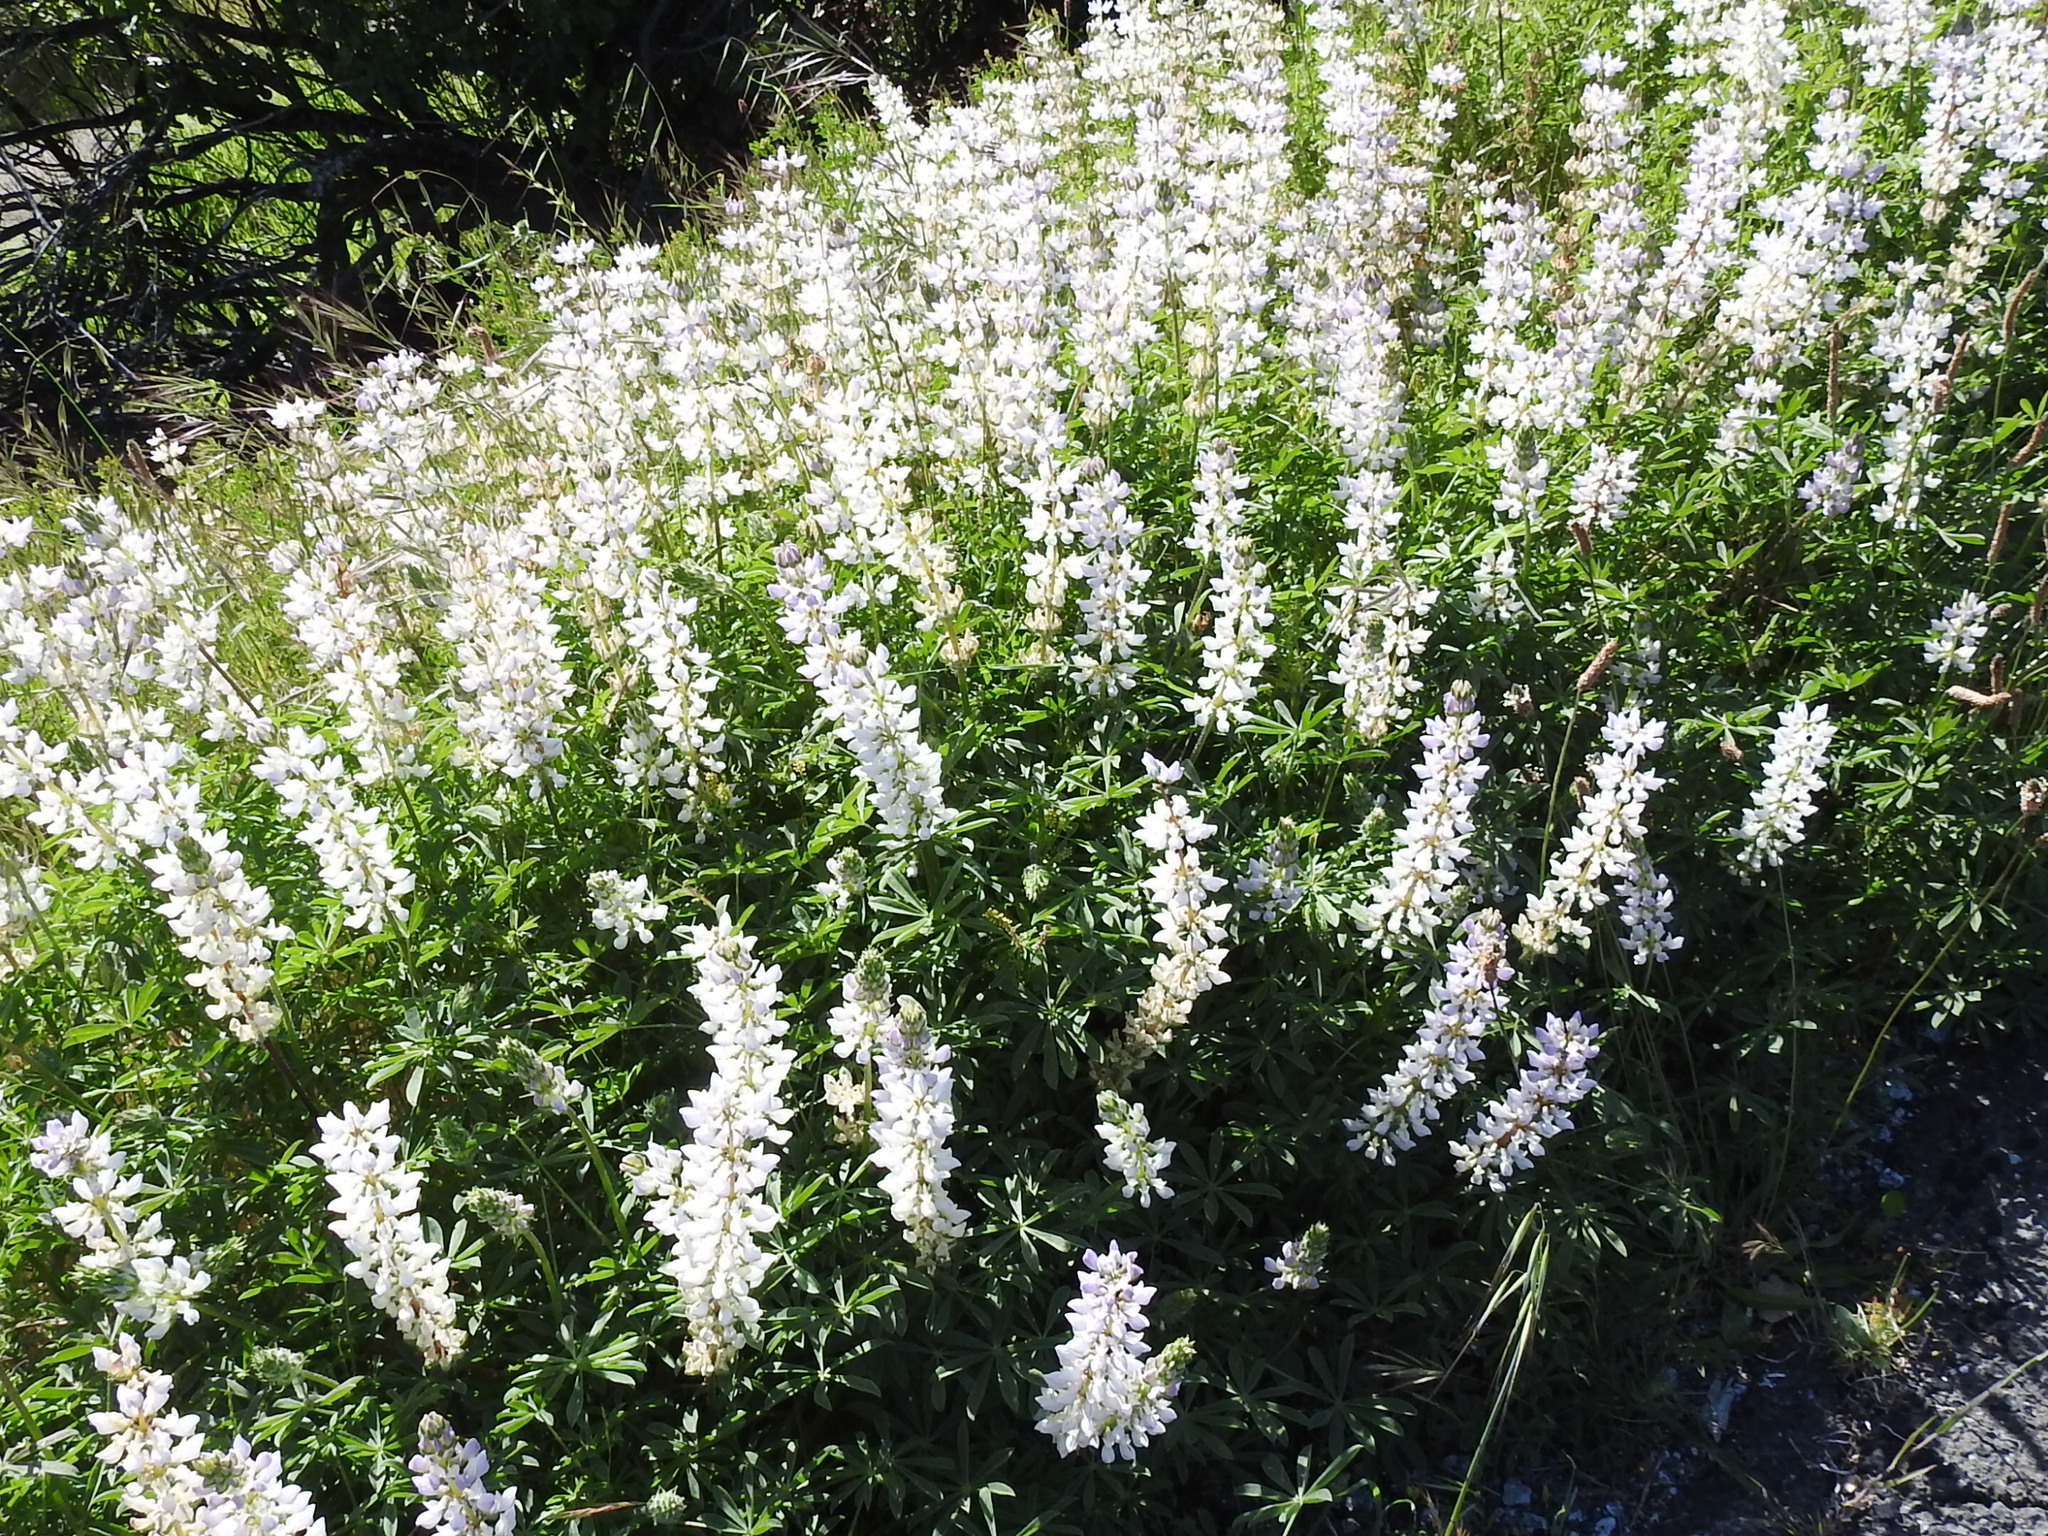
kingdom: Plantae
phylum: Tracheophyta
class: Magnoliopsida
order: Fabales
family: Fabaceae
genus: Lupinus
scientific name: Lupinus microcarpus
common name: Chick lupine
